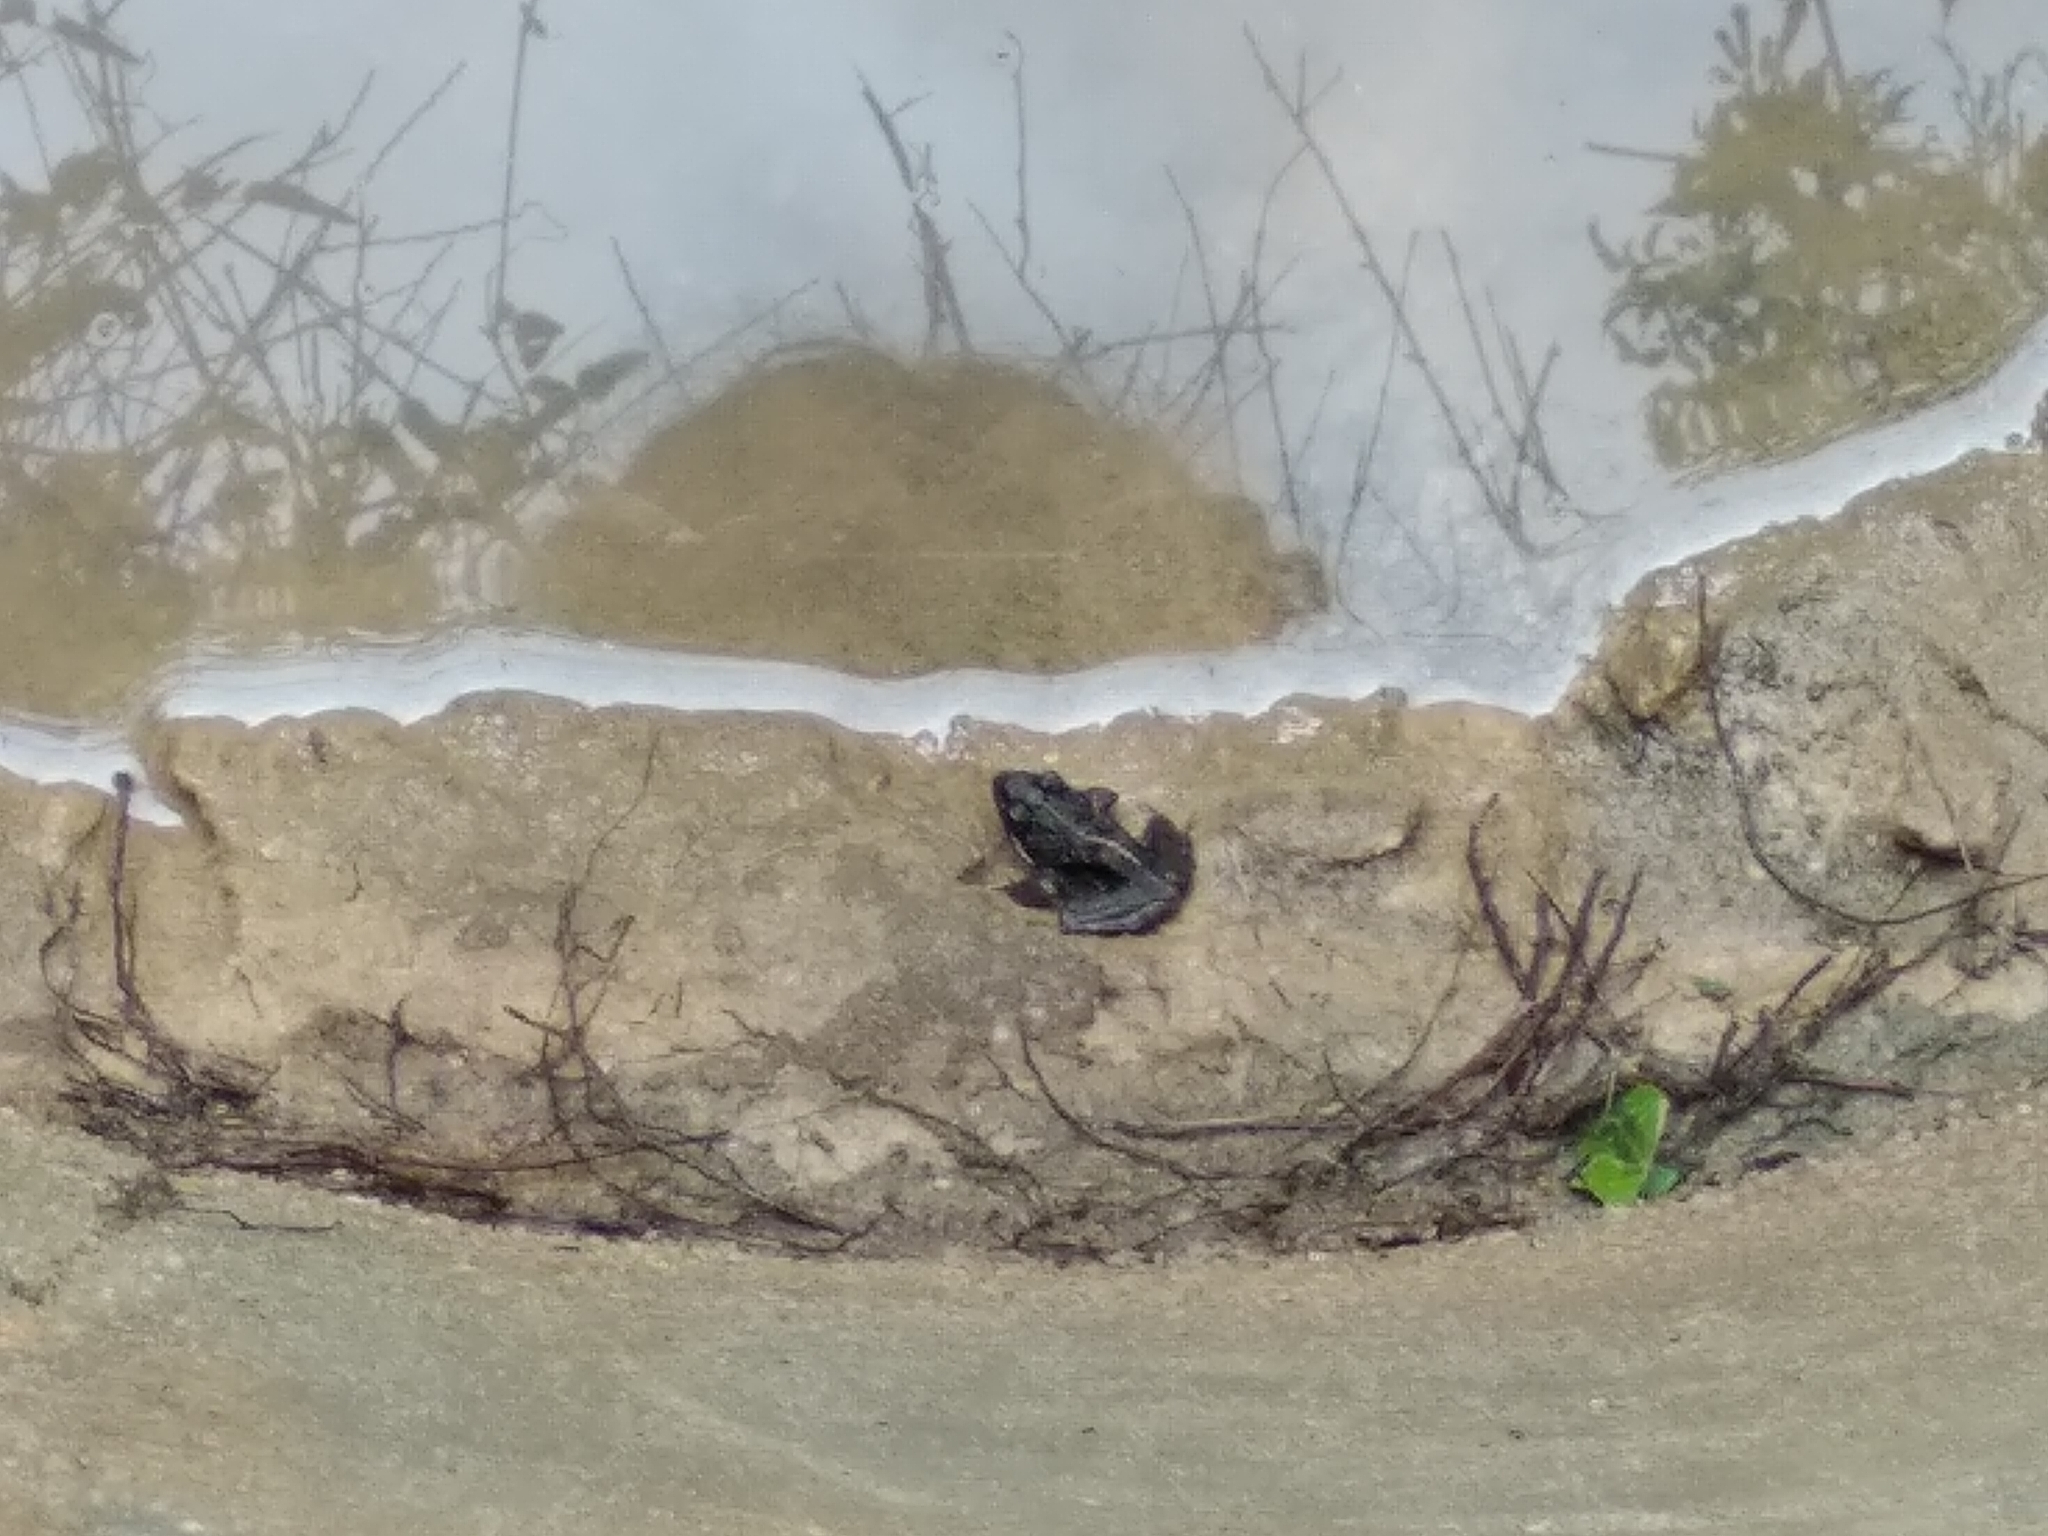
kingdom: Animalia
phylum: Chordata
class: Amphibia
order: Anura
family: Pyxicephalidae
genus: Strongylopus
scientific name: Strongylopus grayii
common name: Gray's stream frog
